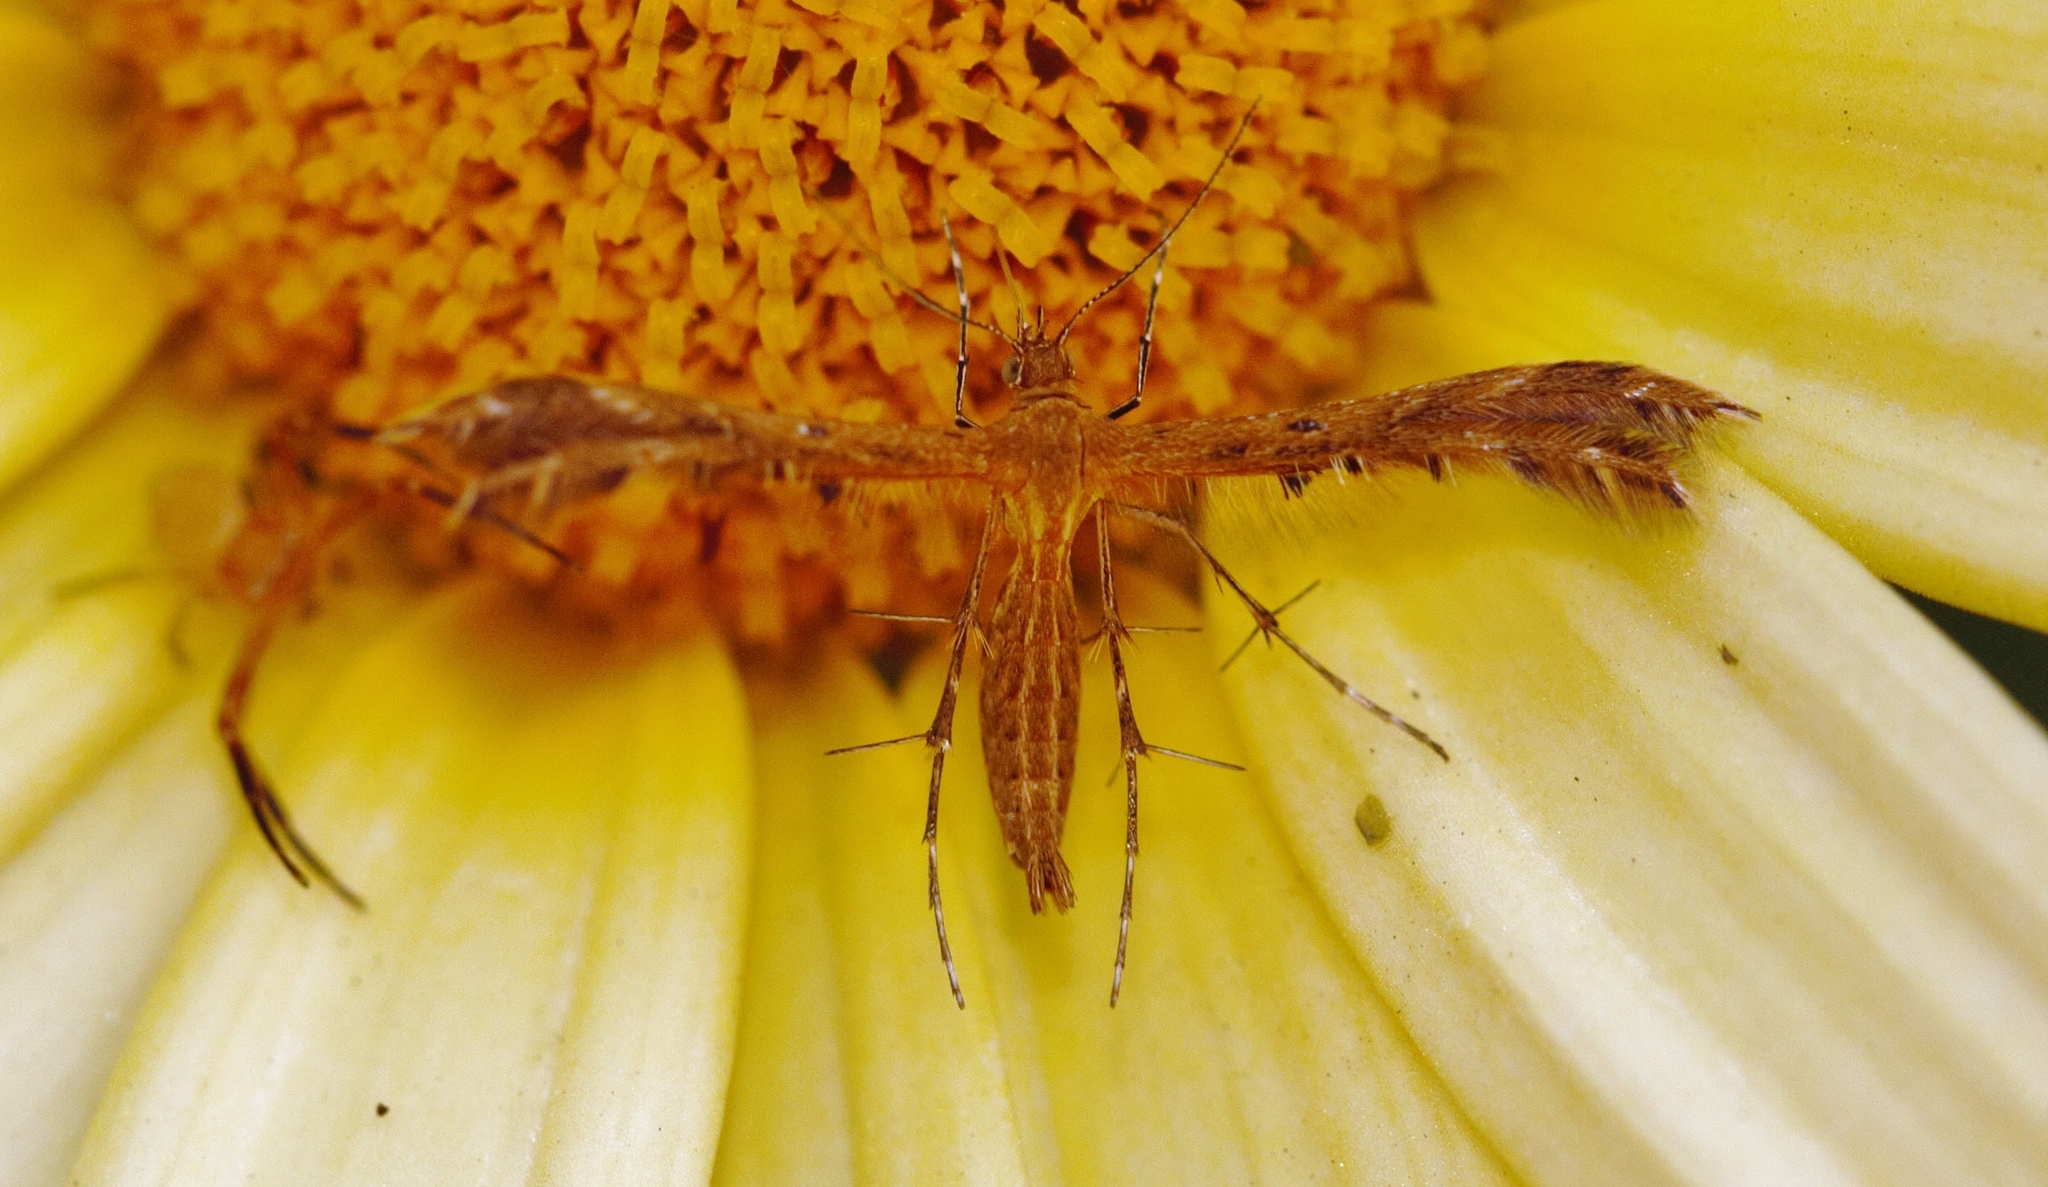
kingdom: Animalia
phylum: Arthropoda
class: Insecta
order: Lepidoptera
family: Pterophoridae
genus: Stenodacma
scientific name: Stenodacma wahlbergi
